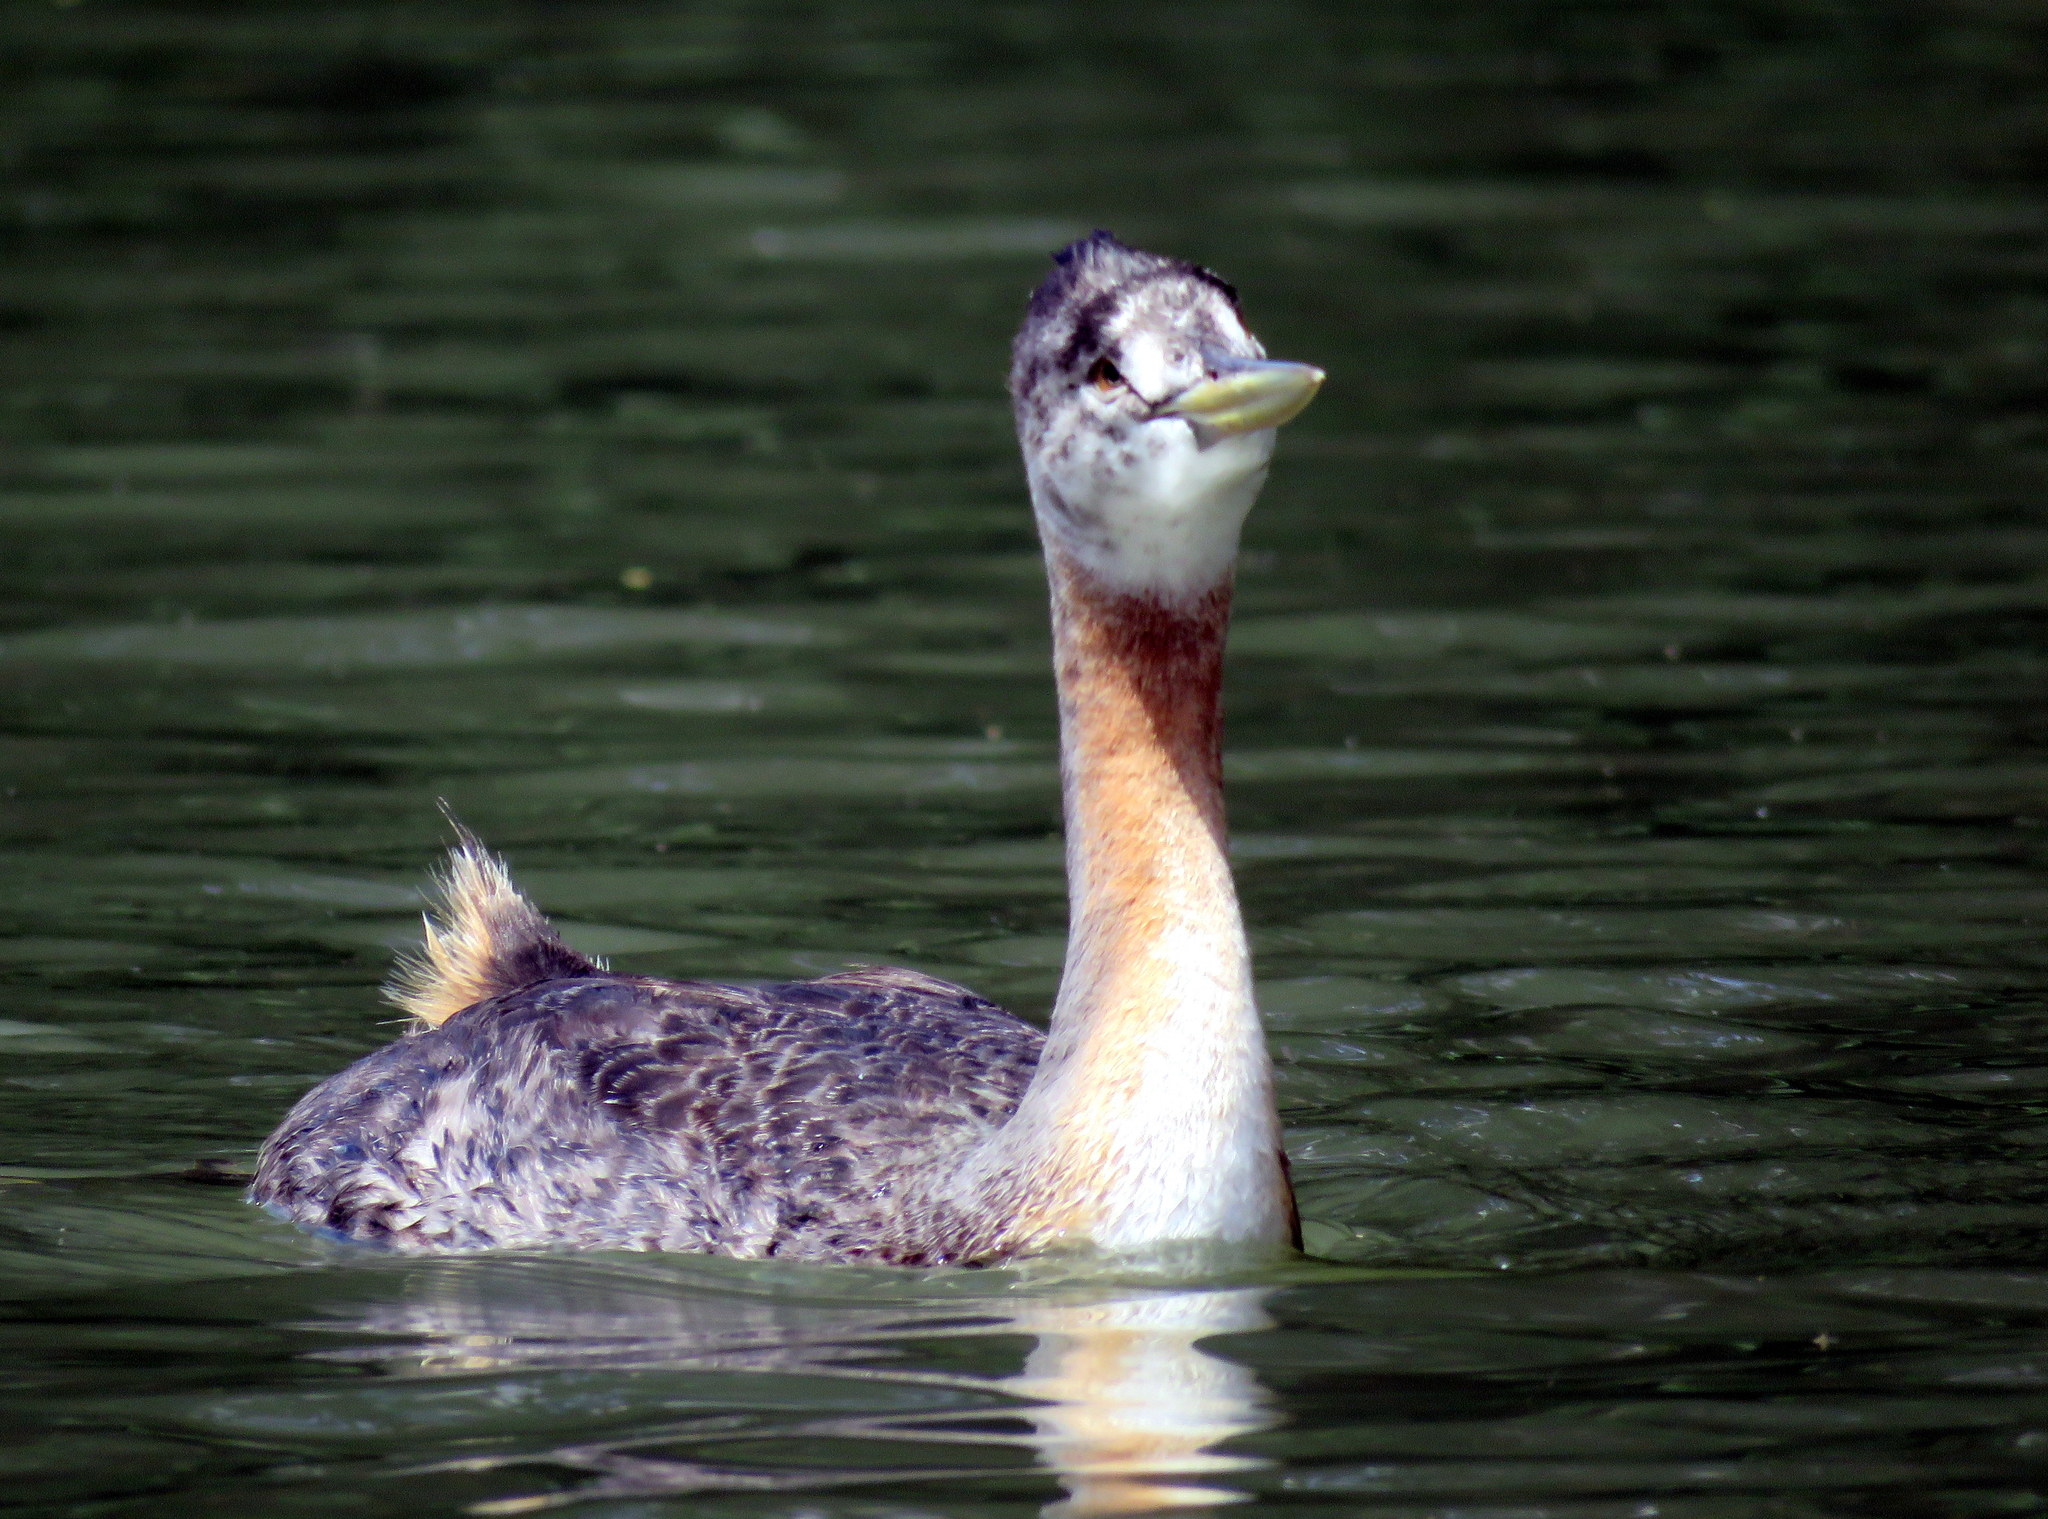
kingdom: Animalia
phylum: Chordata
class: Aves
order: Podicipediformes
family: Podicipedidae
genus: Podiceps
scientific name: Podiceps major
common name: Great grebe
